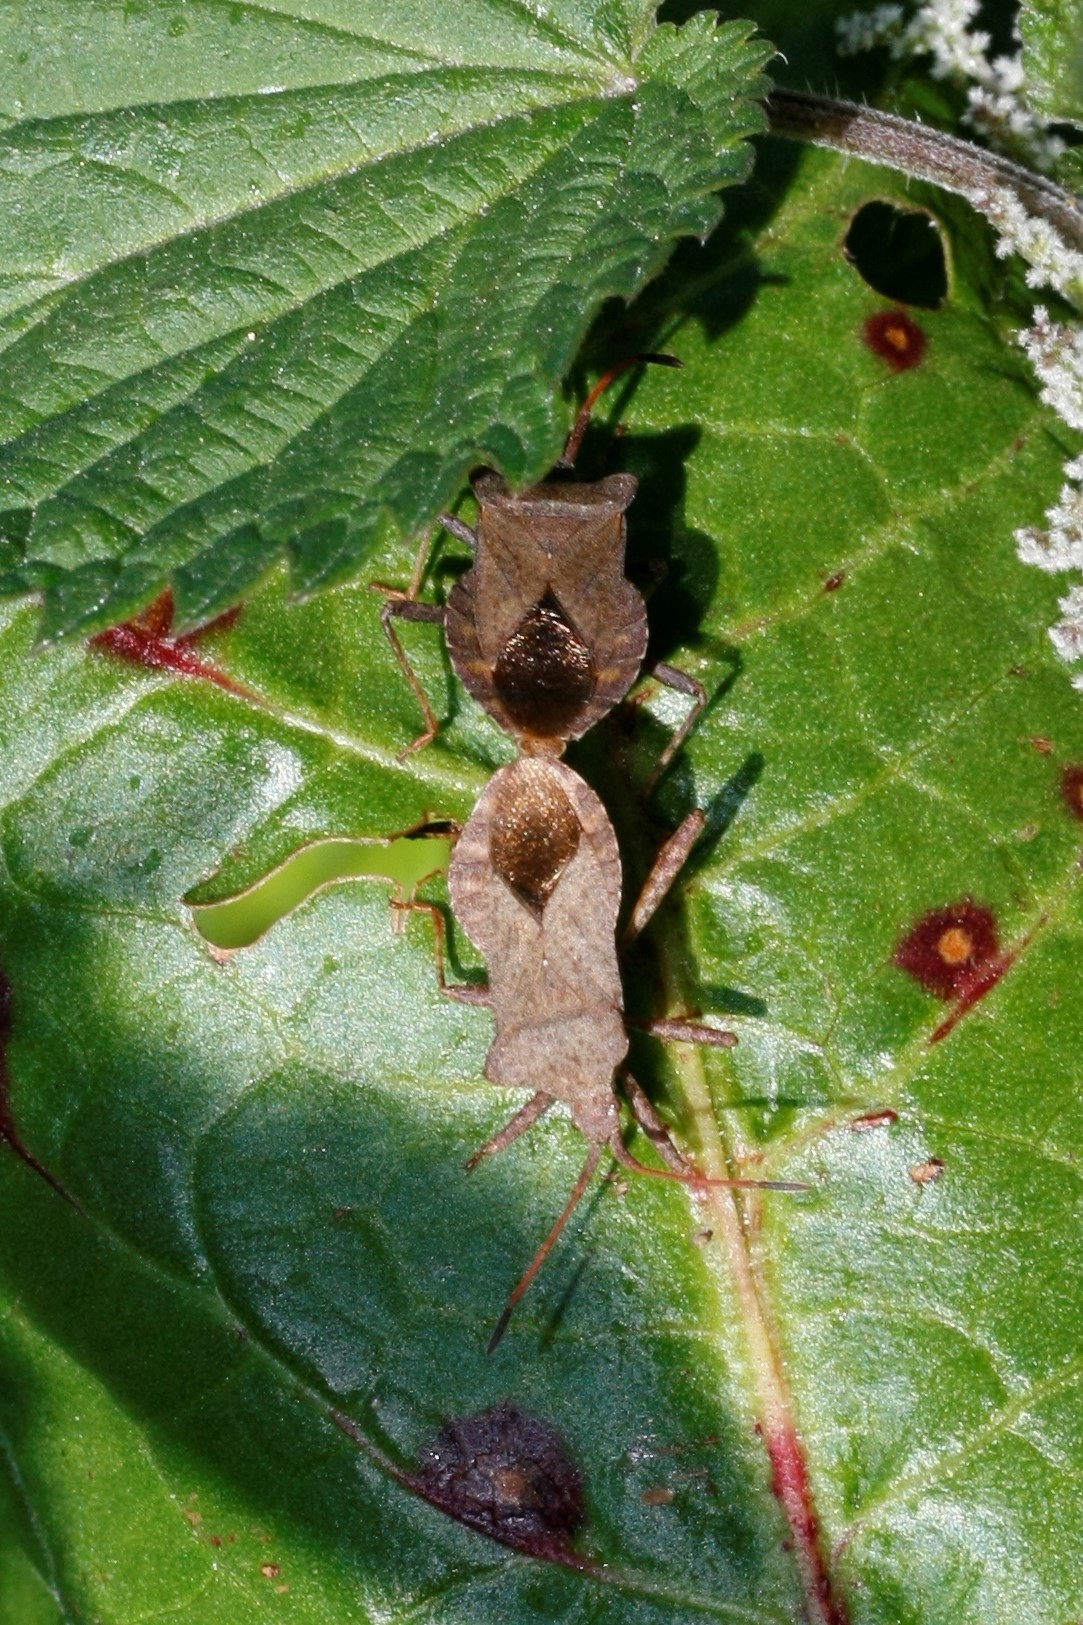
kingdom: Animalia
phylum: Arthropoda
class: Insecta
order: Hemiptera
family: Coreidae
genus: Coreus
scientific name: Coreus marginatus
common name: Dock bug
